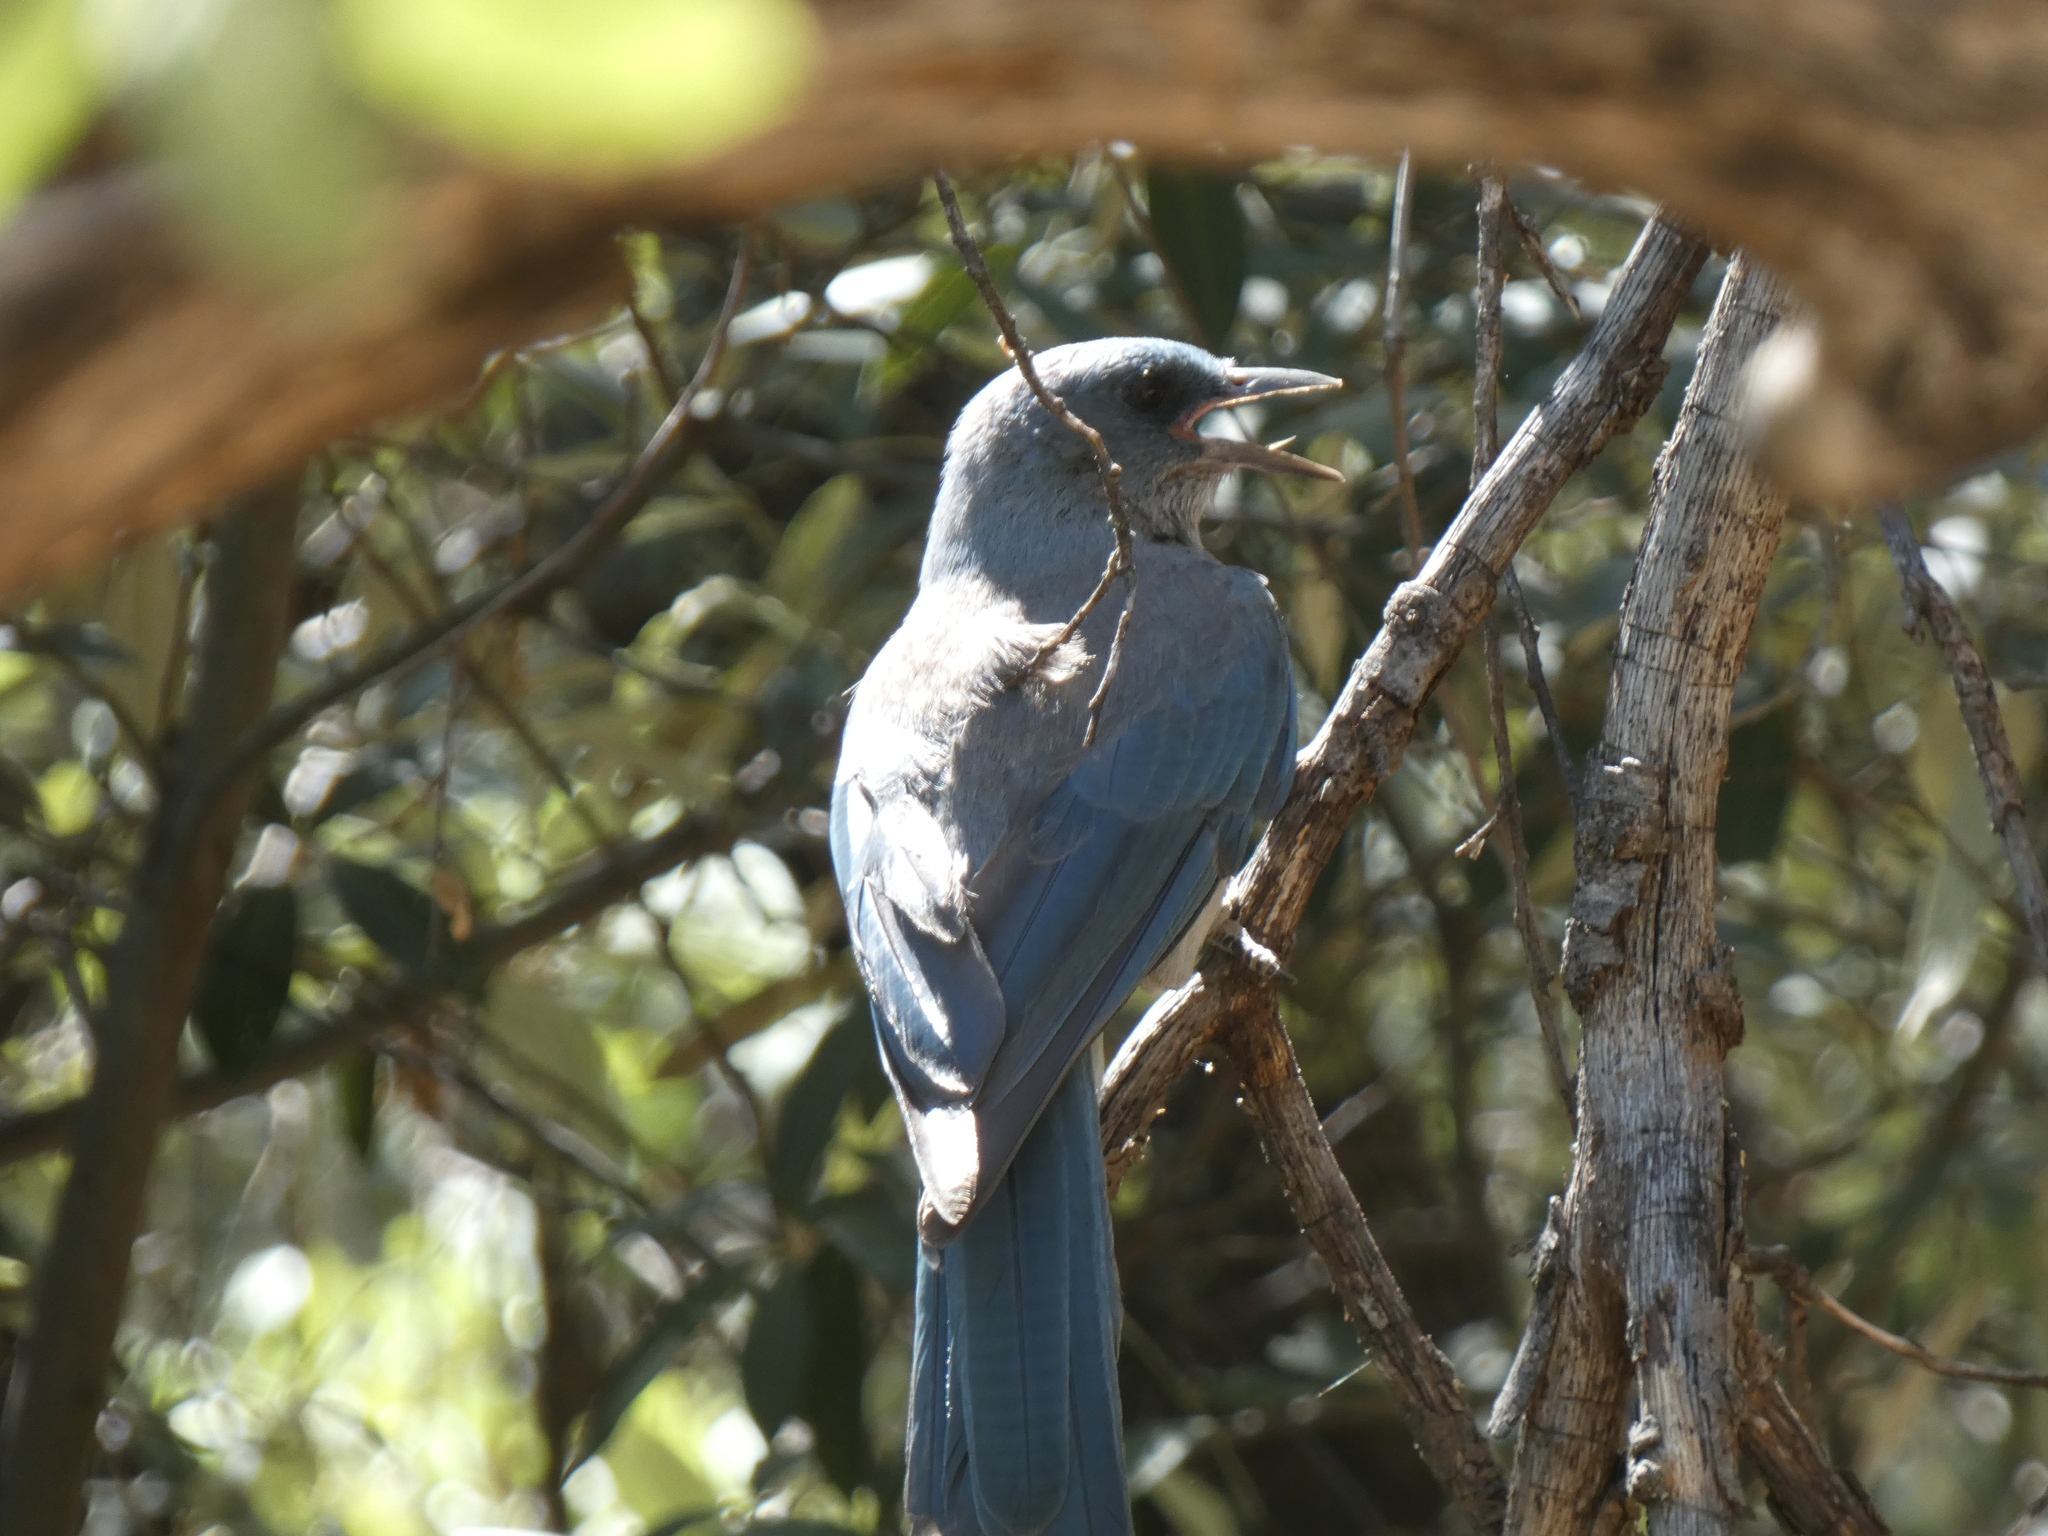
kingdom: Animalia
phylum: Chordata
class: Aves
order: Passeriformes
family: Corvidae
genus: Aphelocoma
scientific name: Aphelocoma wollweberi
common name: Mexican jay
